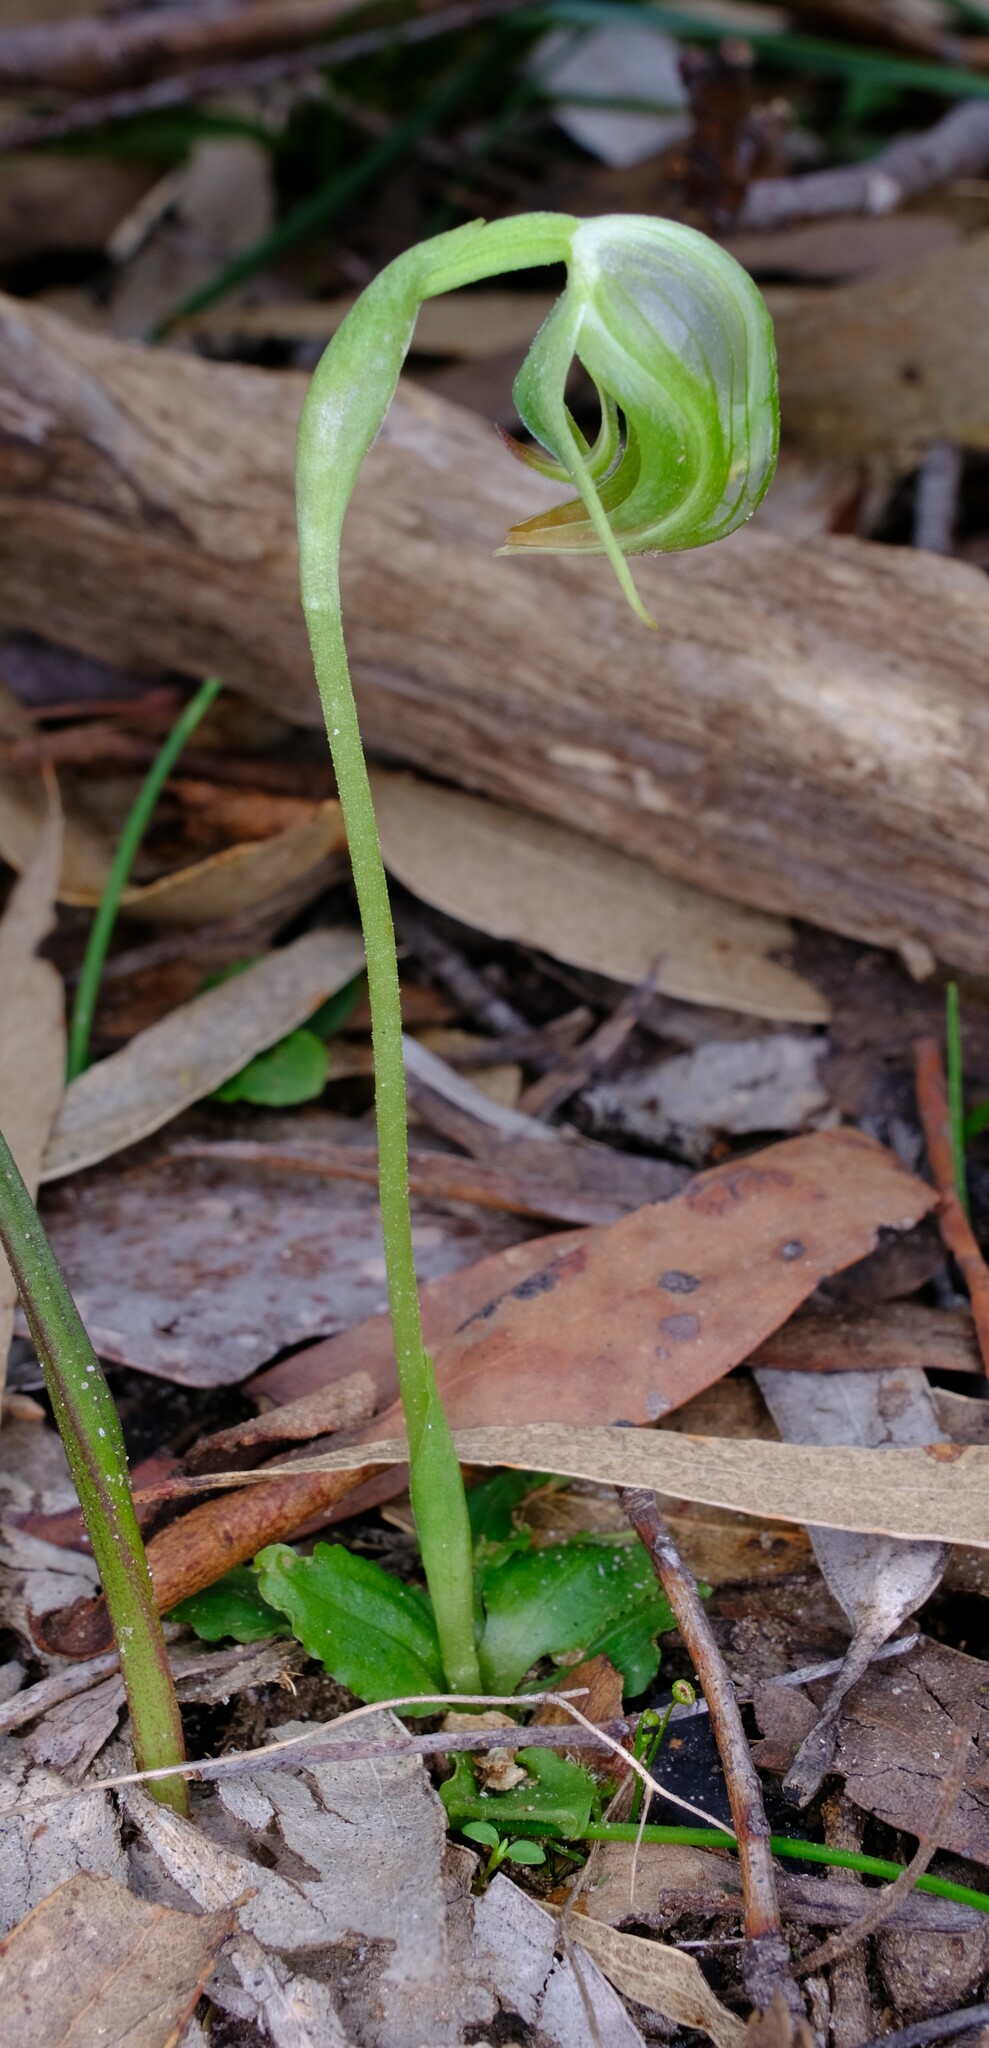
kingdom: Plantae
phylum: Tracheophyta
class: Liliopsida
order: Asparagales
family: Orchidaceae
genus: Pterostylis
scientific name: Pterostylis nutans
